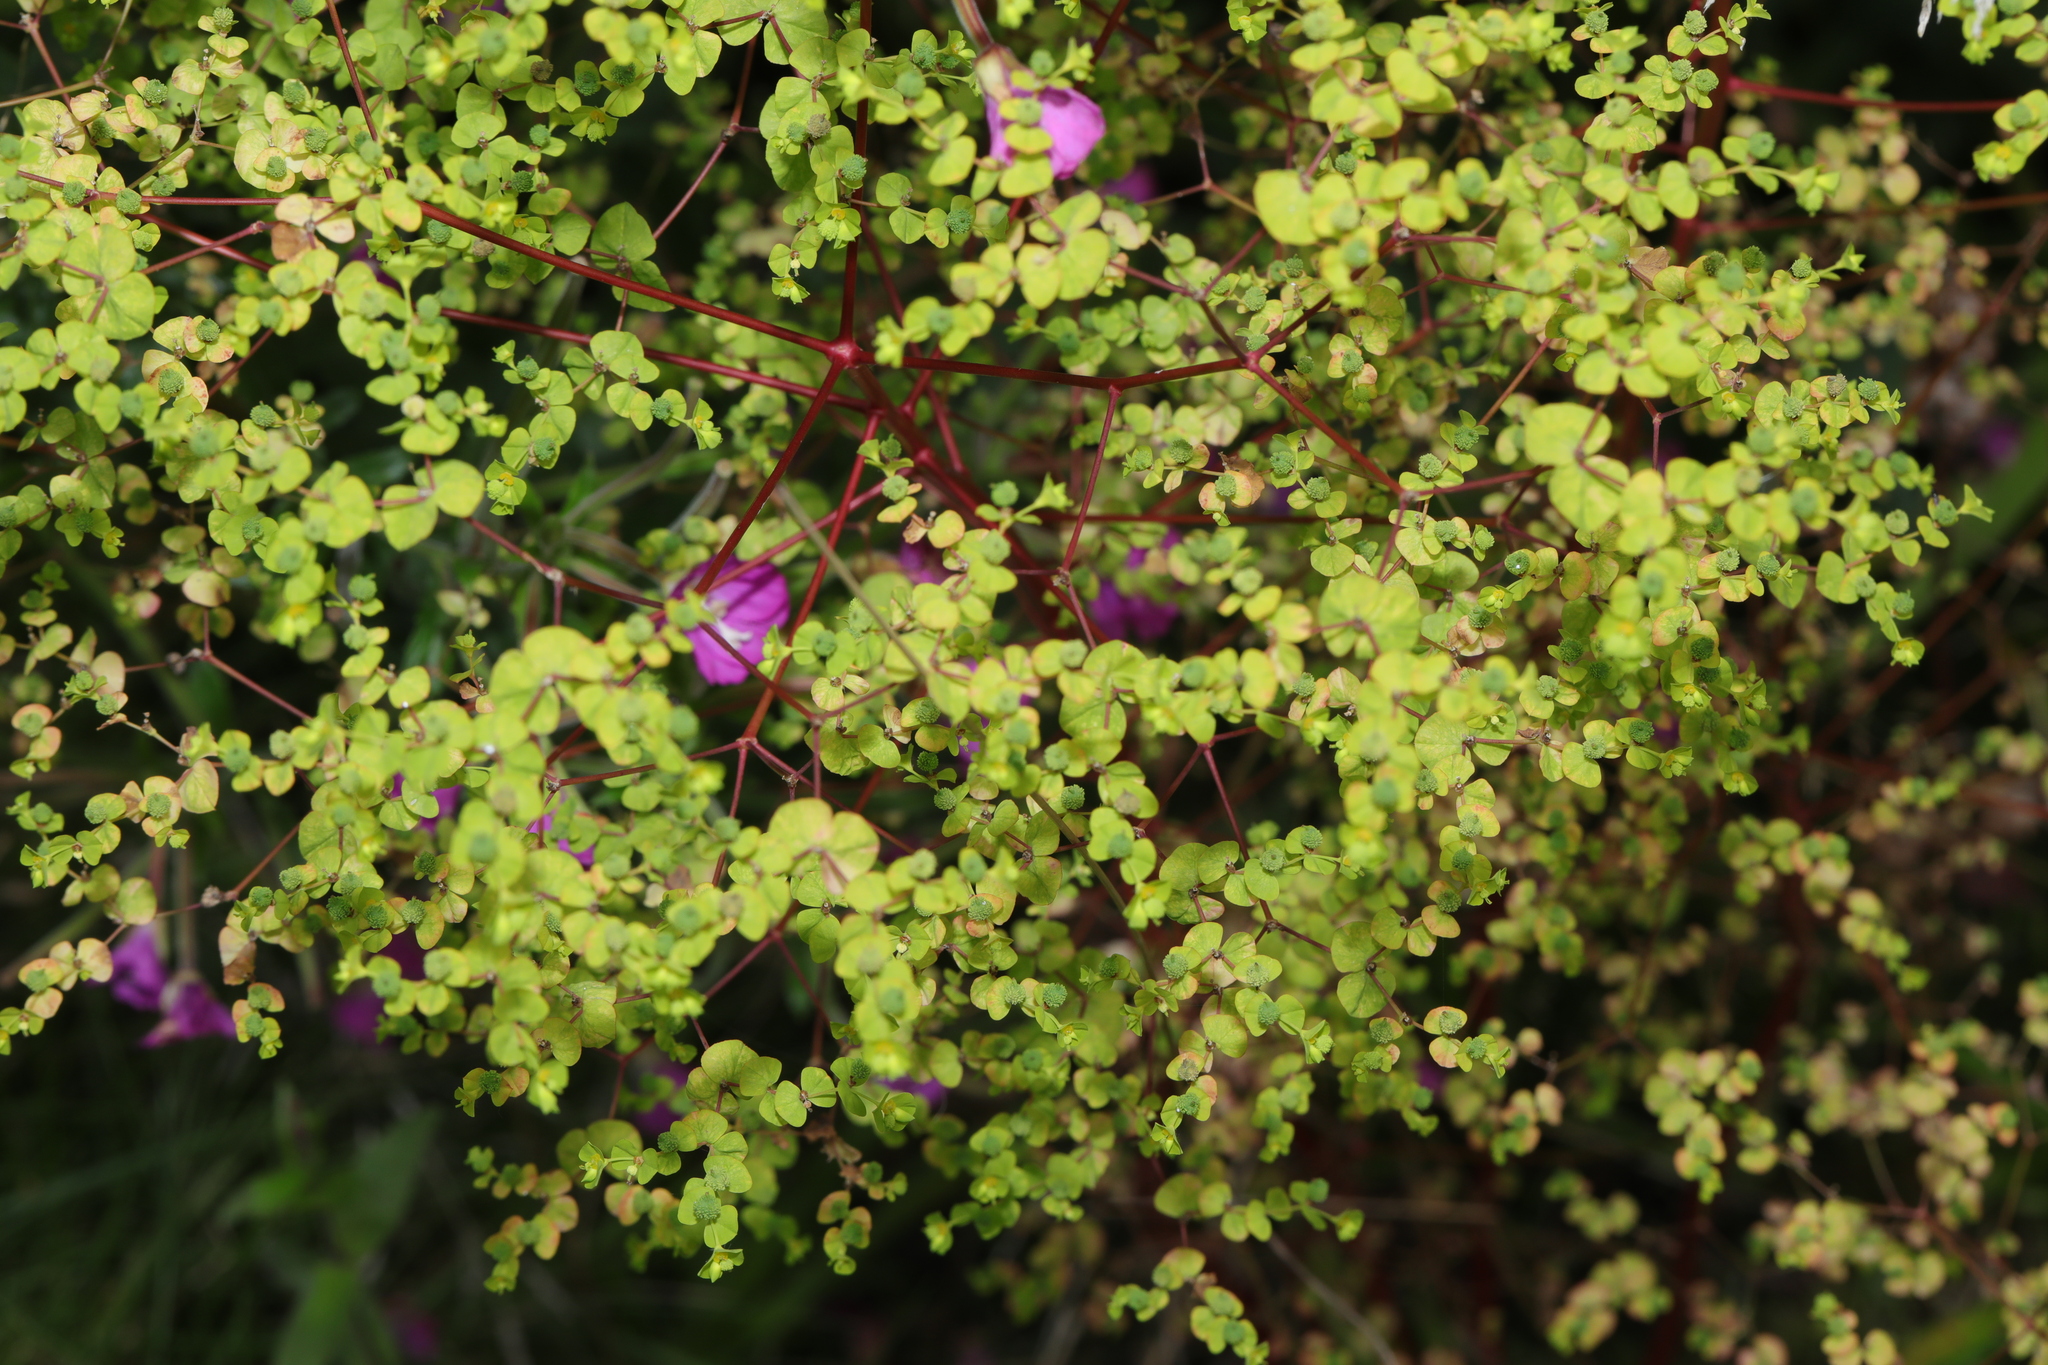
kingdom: Plantae
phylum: Tracheophyta
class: Magnoliopsida
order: Malpighiales
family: Euphorbiaceae
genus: Euphorbia
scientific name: Euphorbia stricta
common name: Upright spurge
